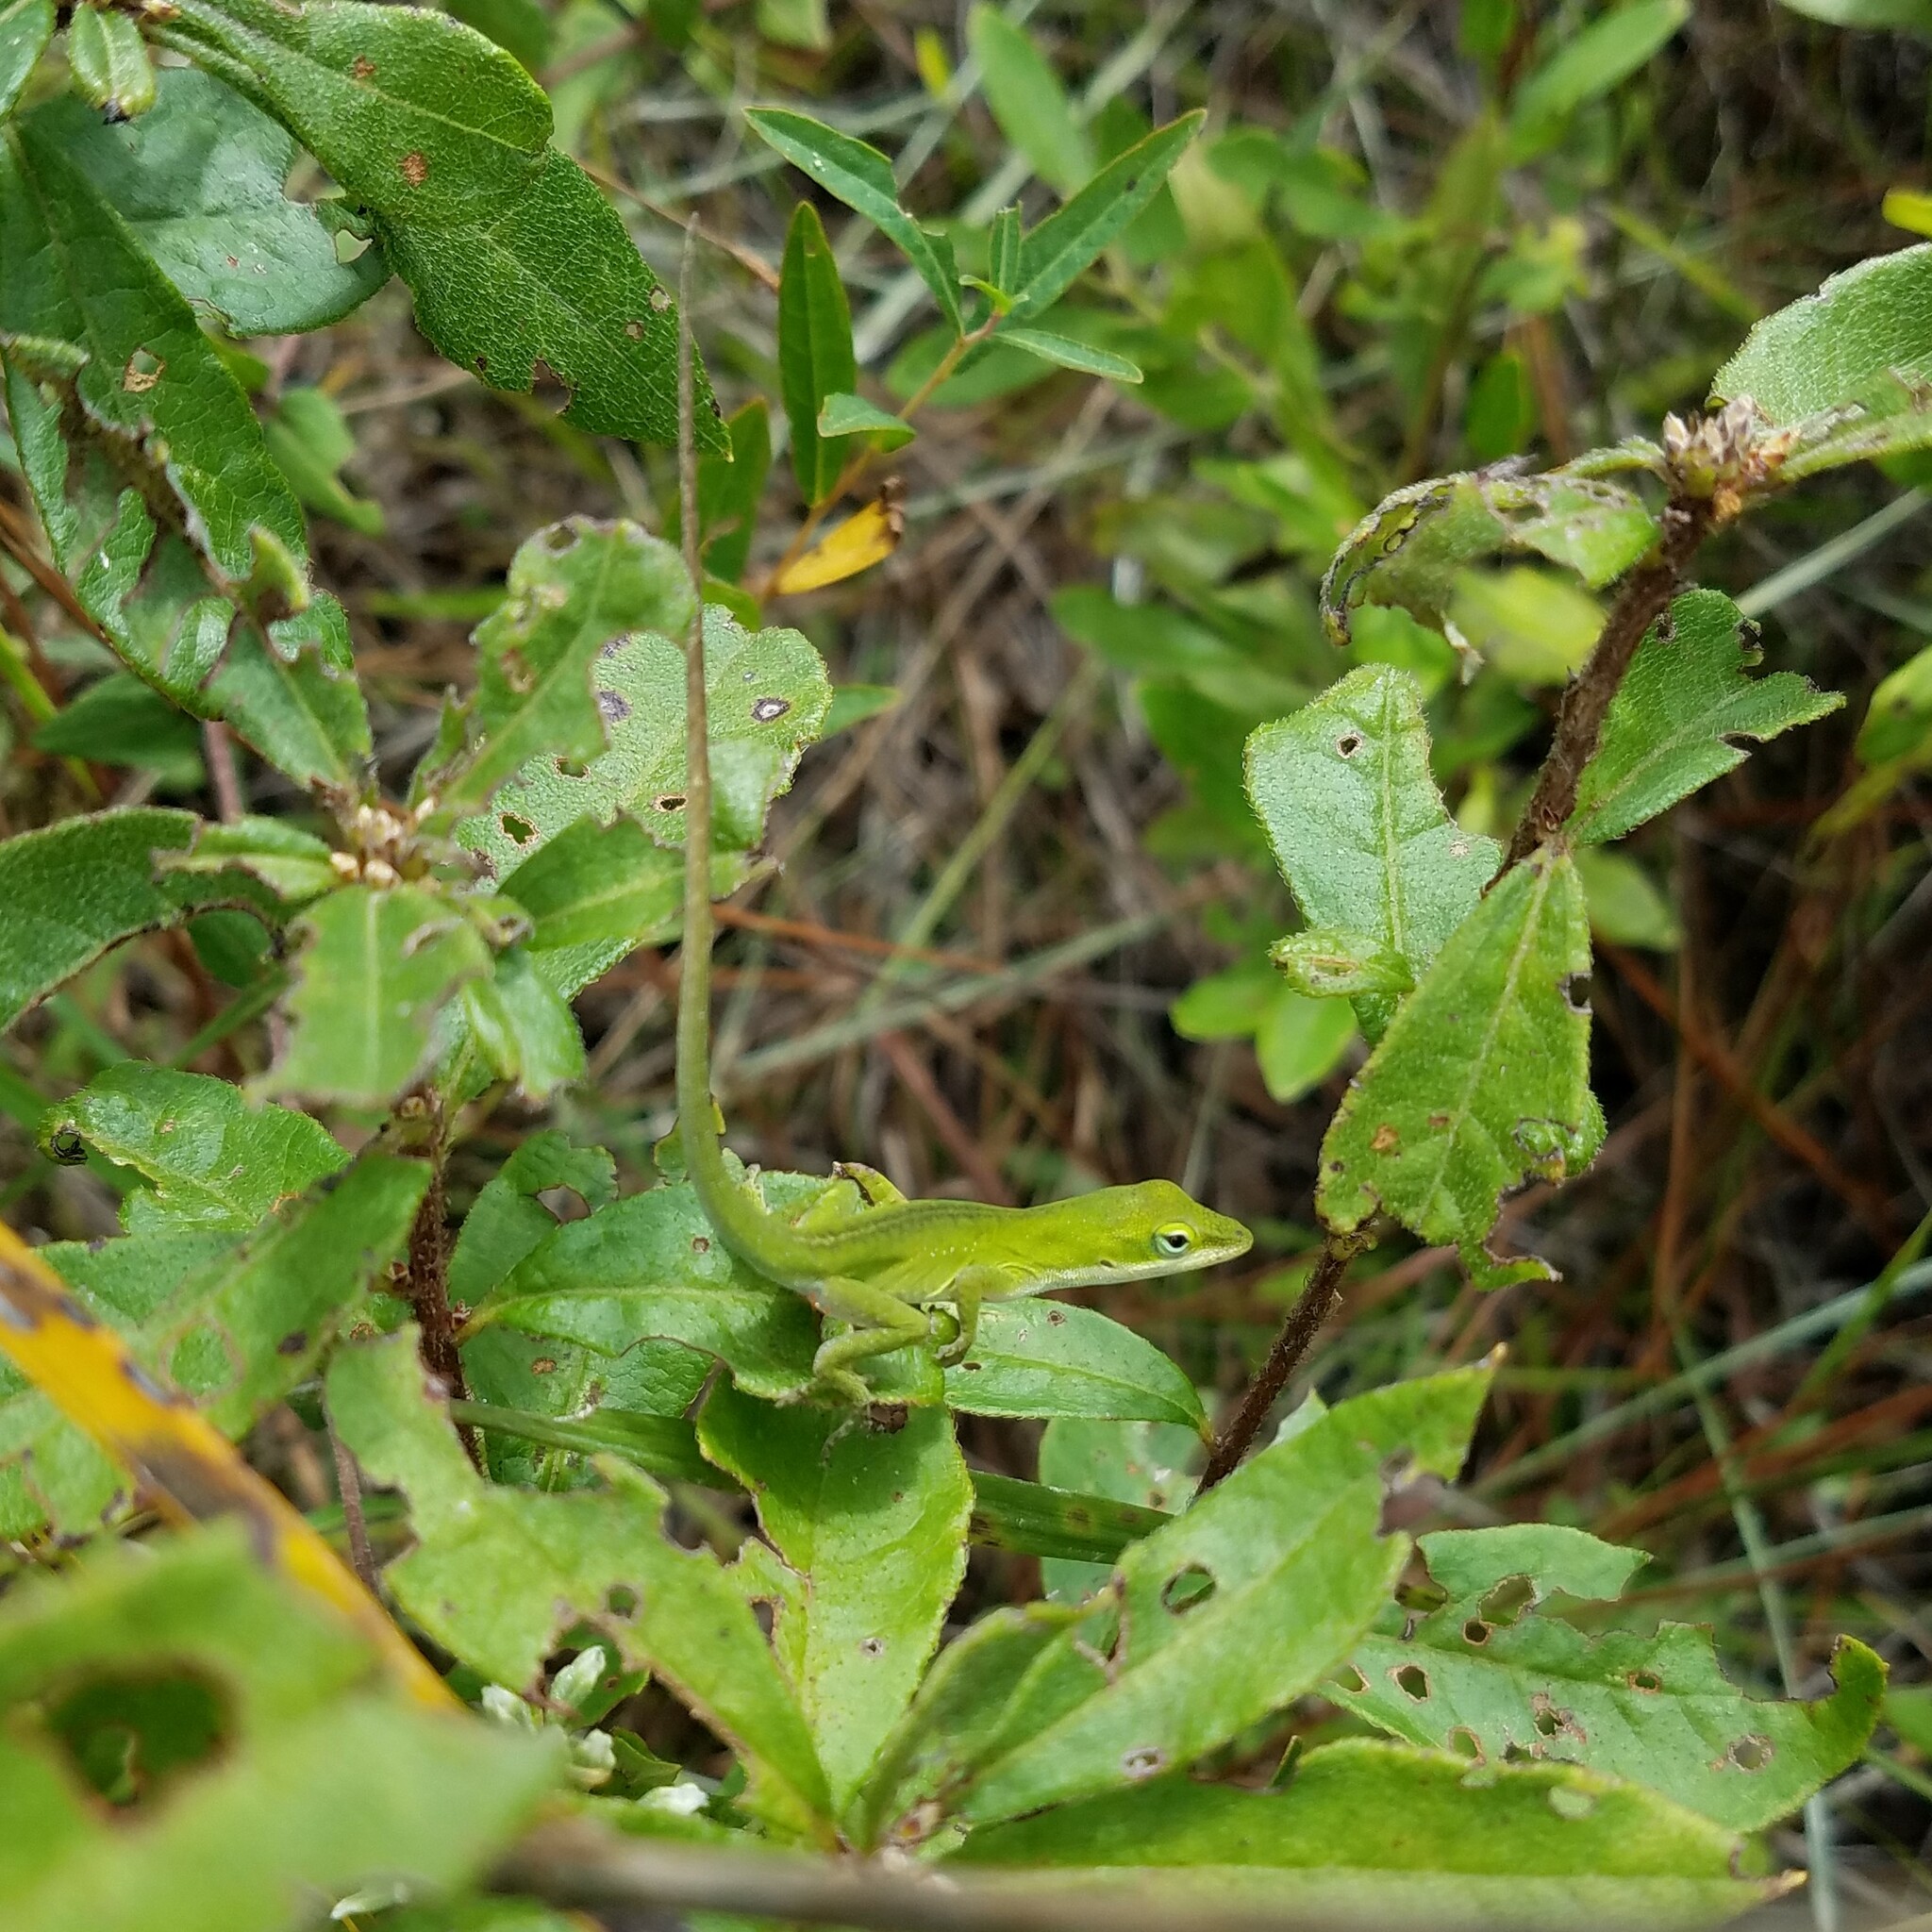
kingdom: Animalia
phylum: Chordata
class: Squamata
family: Dactyloidae
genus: Anolis
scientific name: Anolis carolinensis
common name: Green anole
